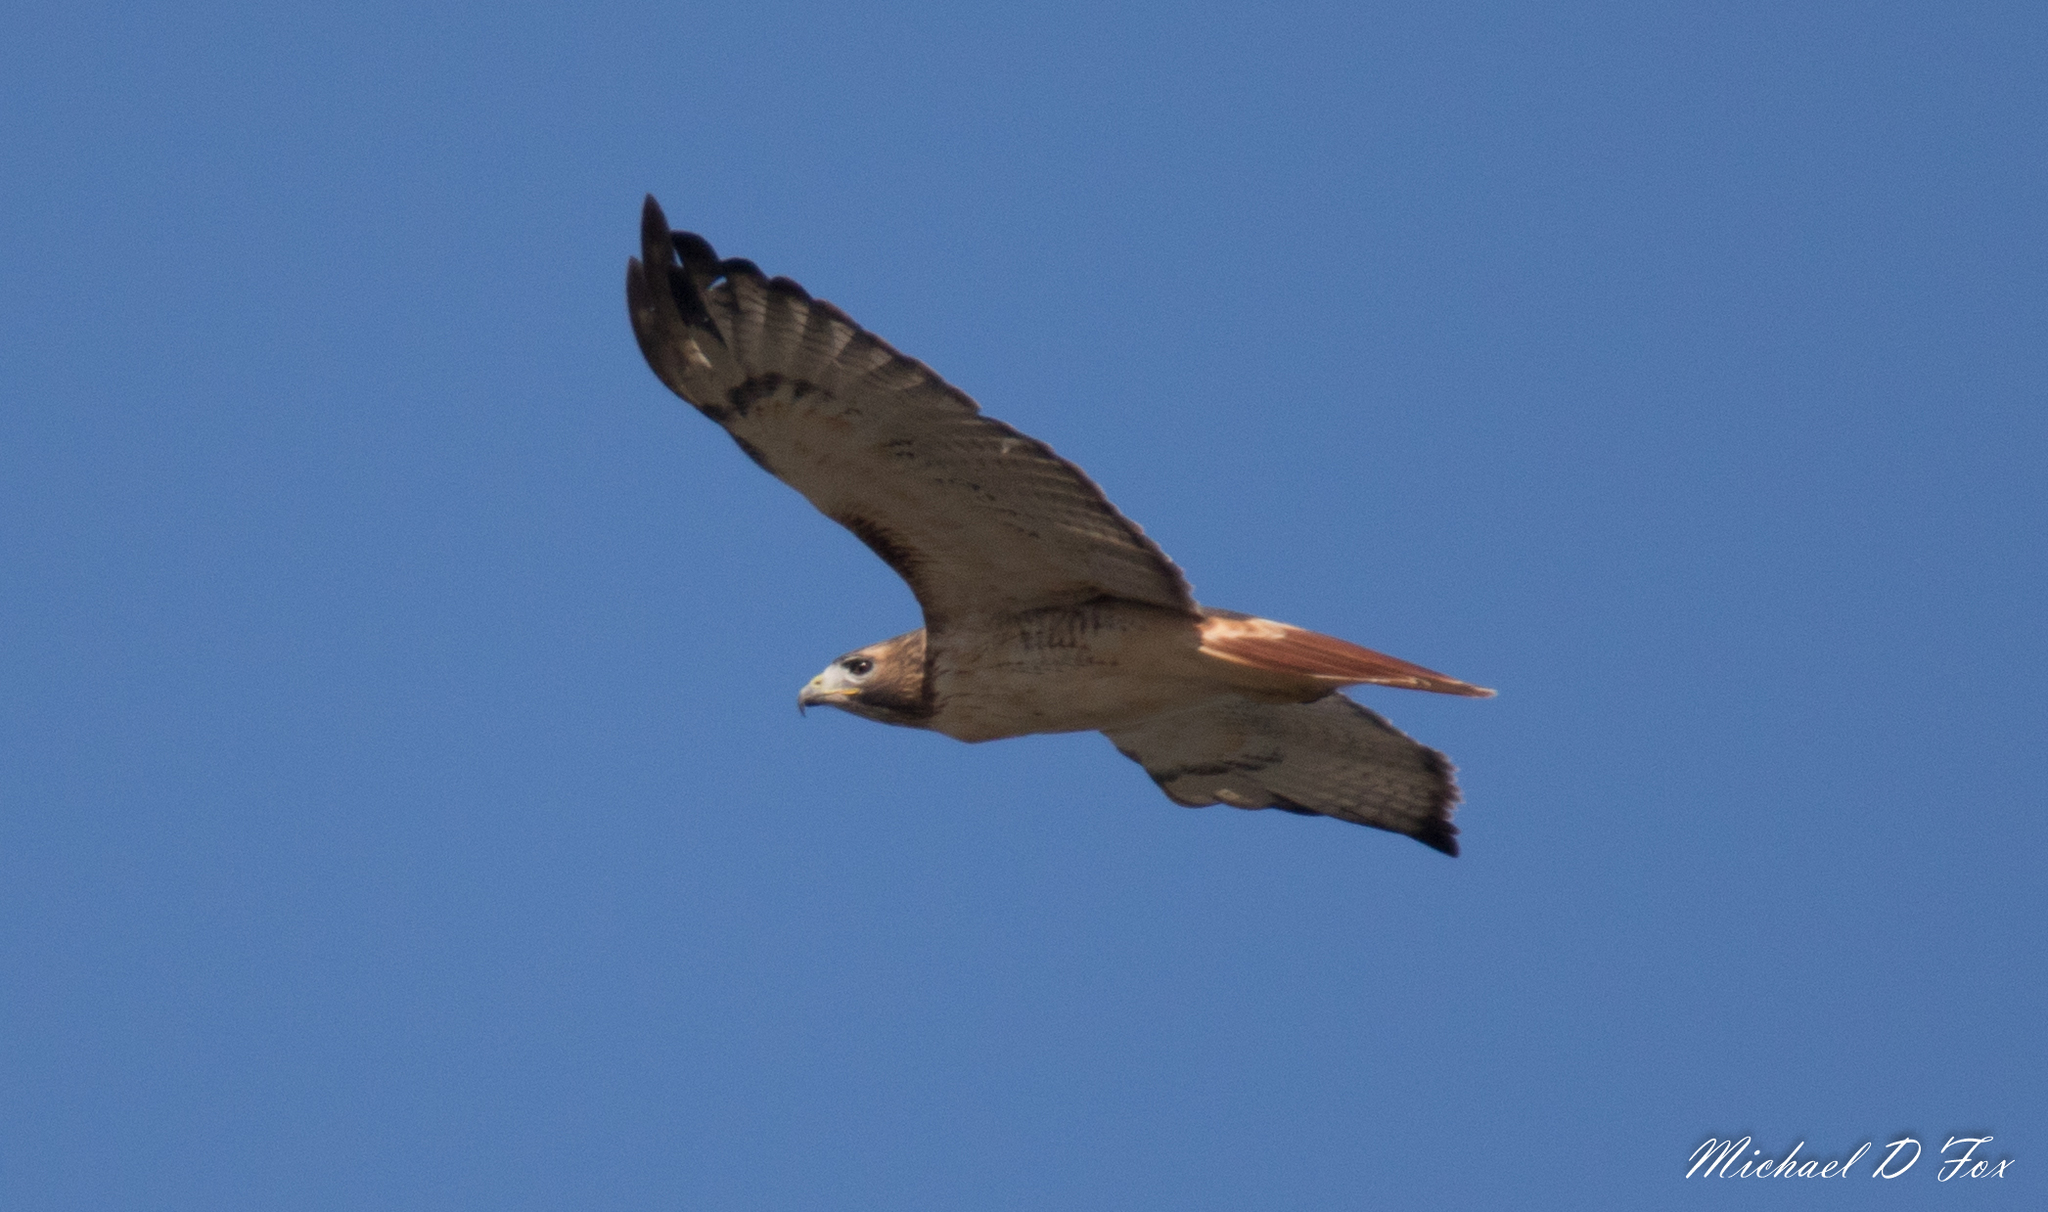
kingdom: Animalia
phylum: Chordata
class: Aves
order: Accipitriformes
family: Accipitridae
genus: Buteo
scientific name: Buteo jamaicensis
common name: Red-tailed hawk
